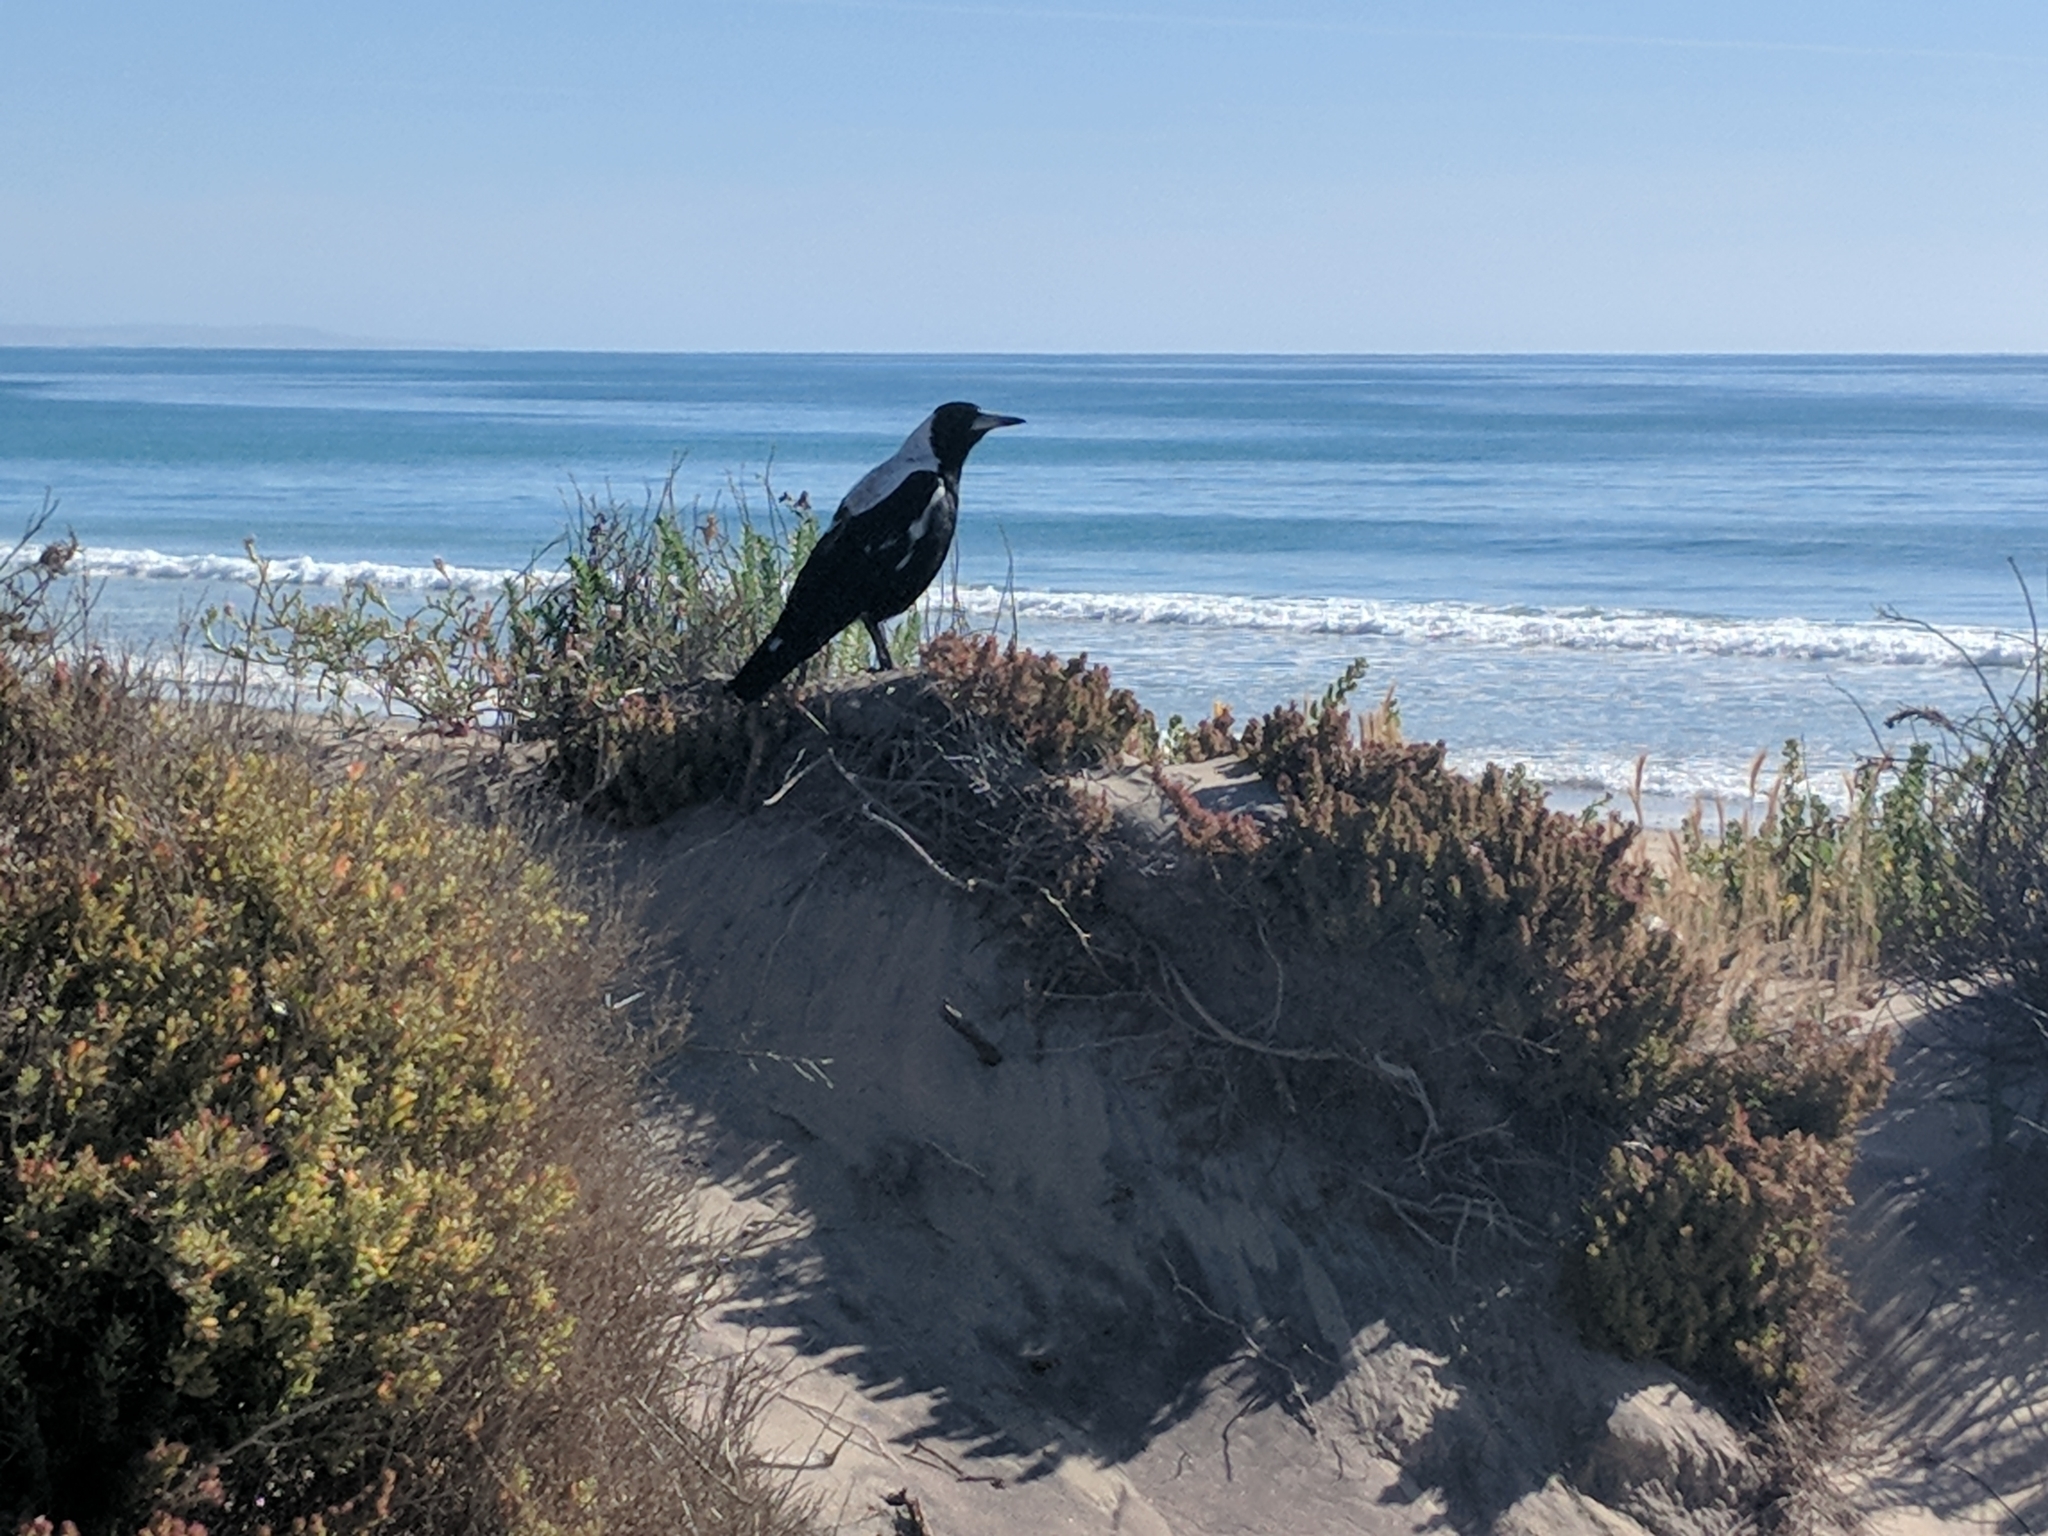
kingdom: Animalia
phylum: Chordata
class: Aves
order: Passeriformes
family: Cracticidae
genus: Gymnorhina
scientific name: Gymnorhina tibicen
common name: Australian magpie
